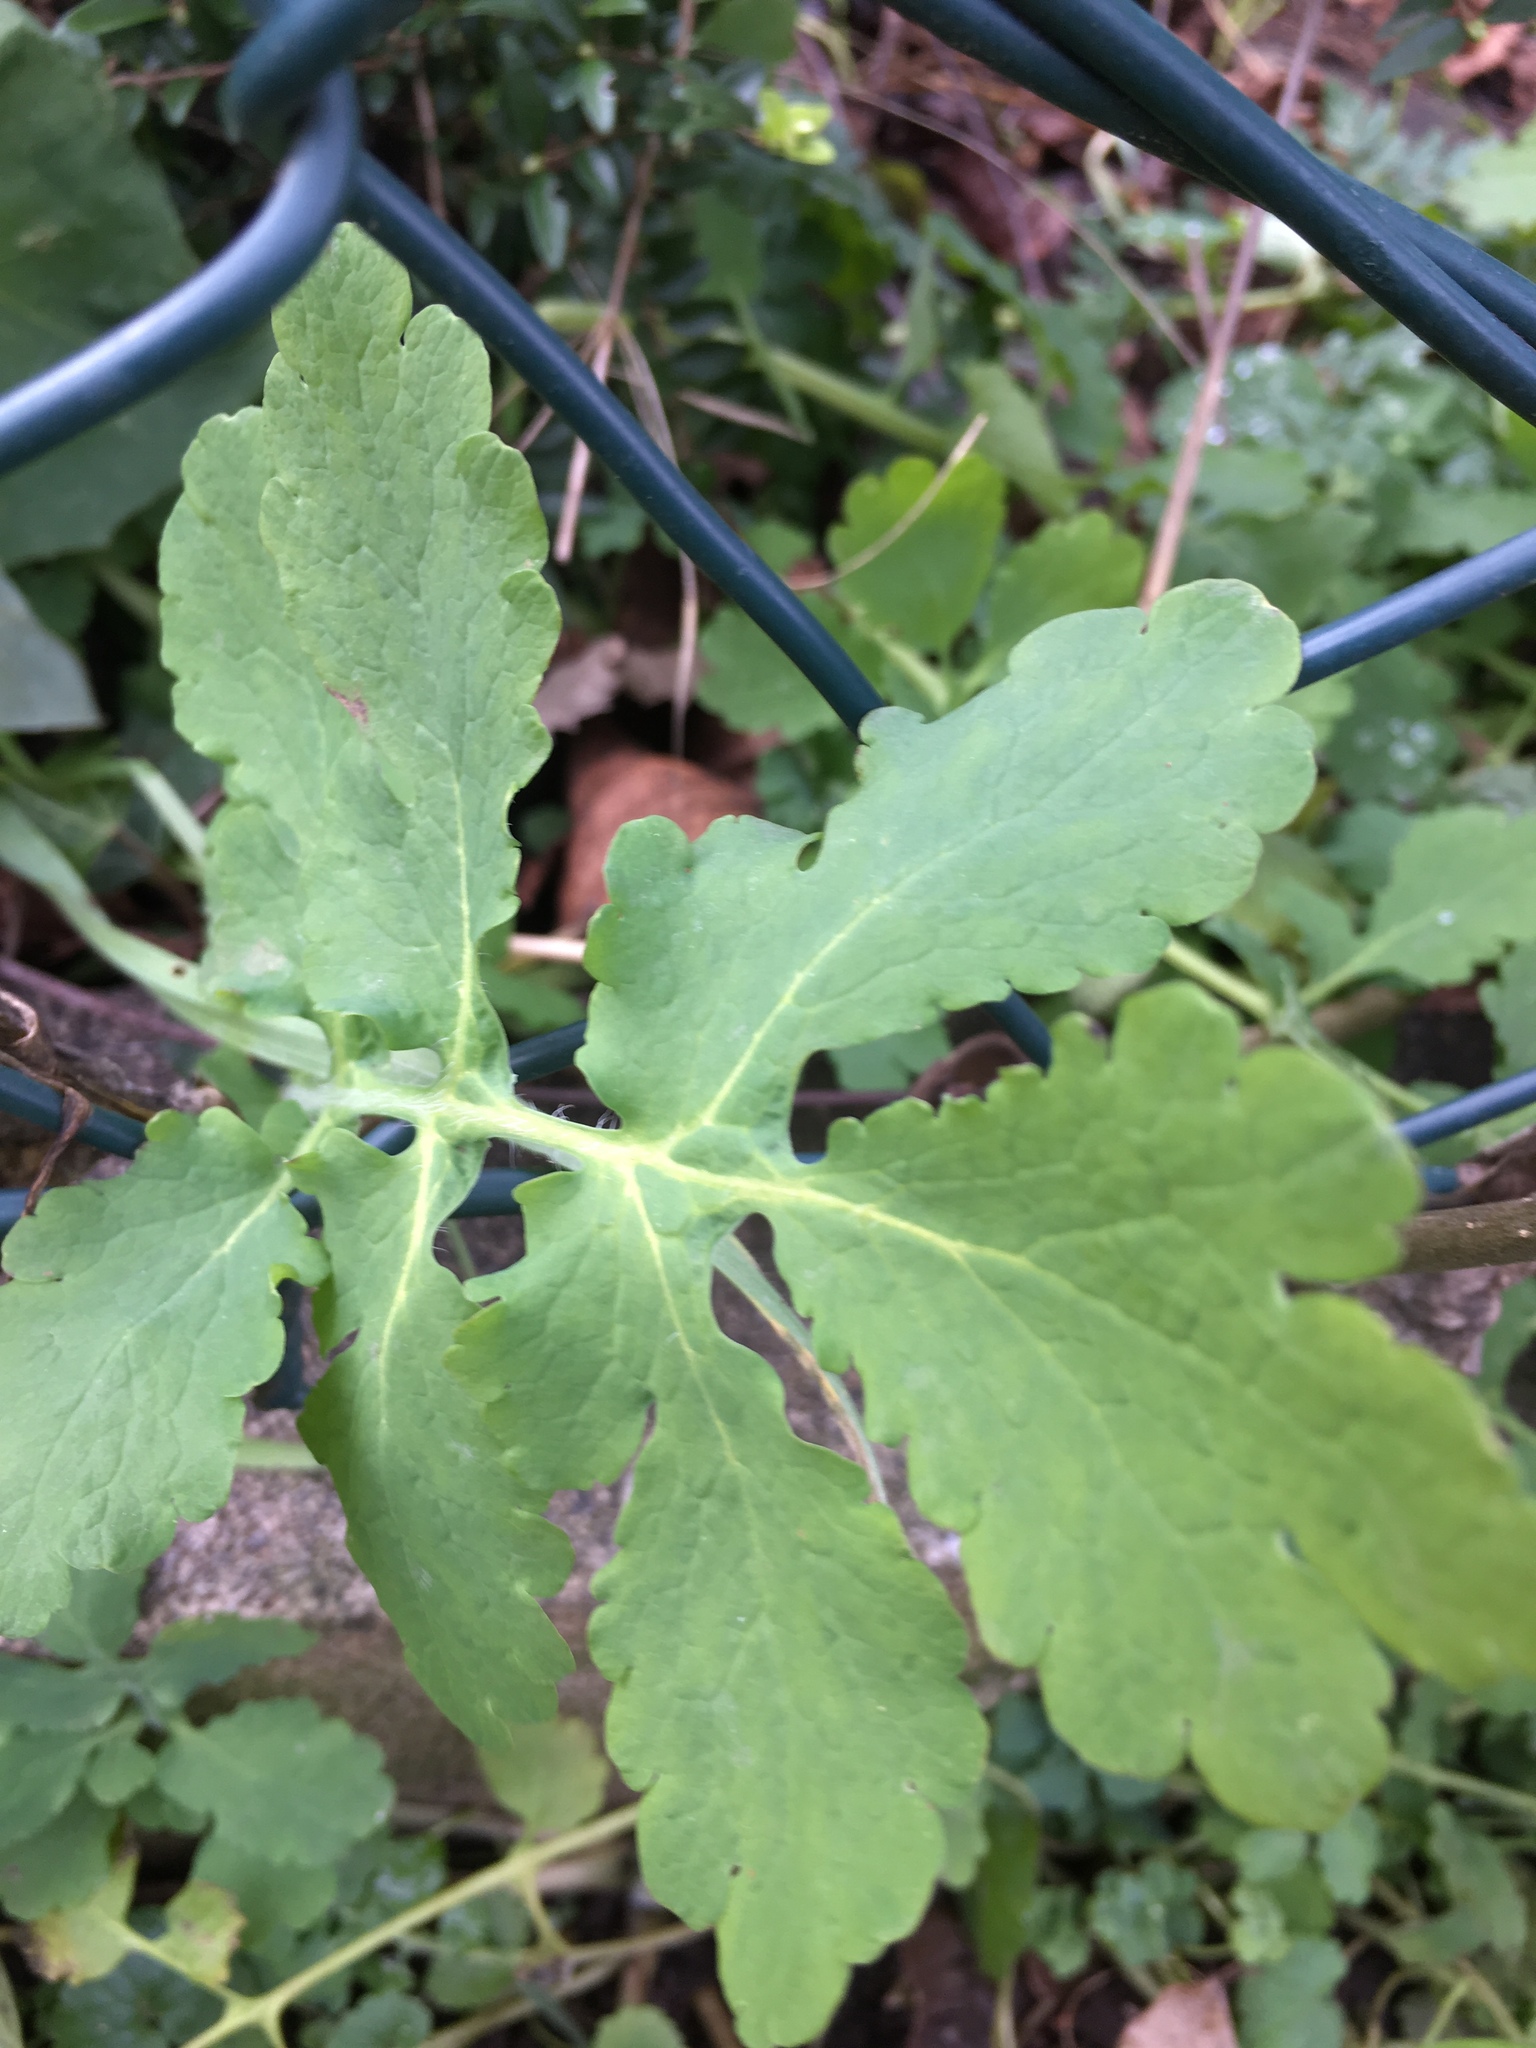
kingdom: Plantae
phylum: Tracheophyta
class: Magnoliopsida
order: Ranunculales
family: Papaveraceae
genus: Chelidonium
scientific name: Chelidonium majus
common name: Greater celandine
